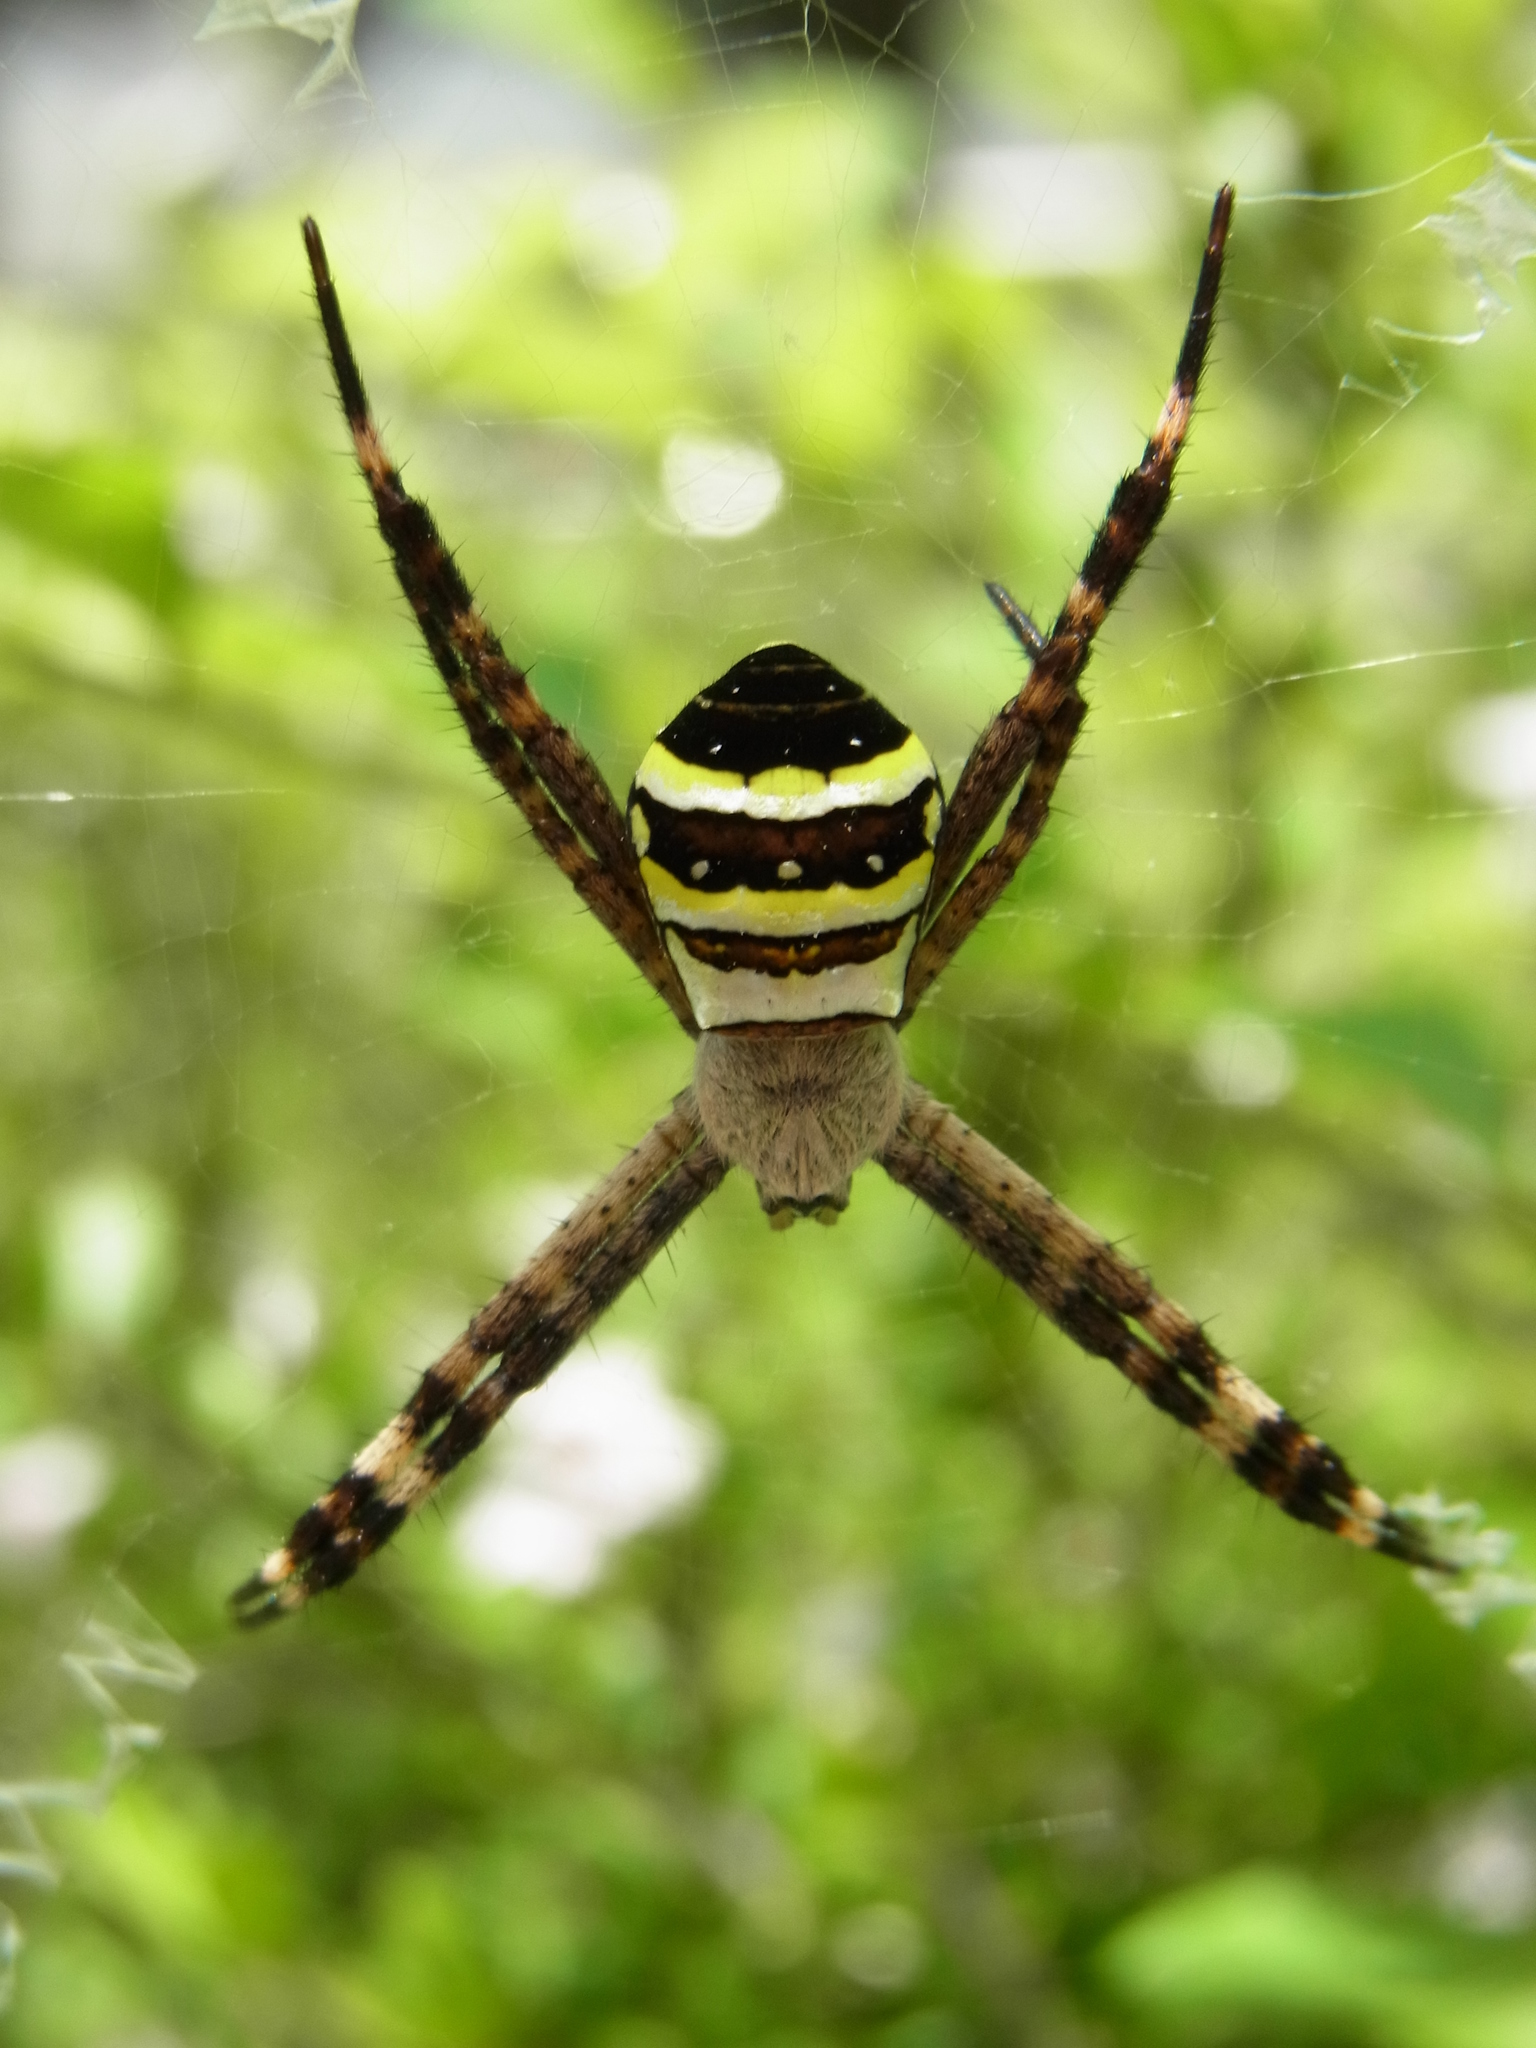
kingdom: Animalia
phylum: Arthropoda
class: Arachnida
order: Araneae
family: Araneidae
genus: Argiope
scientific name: Argiope amoena
